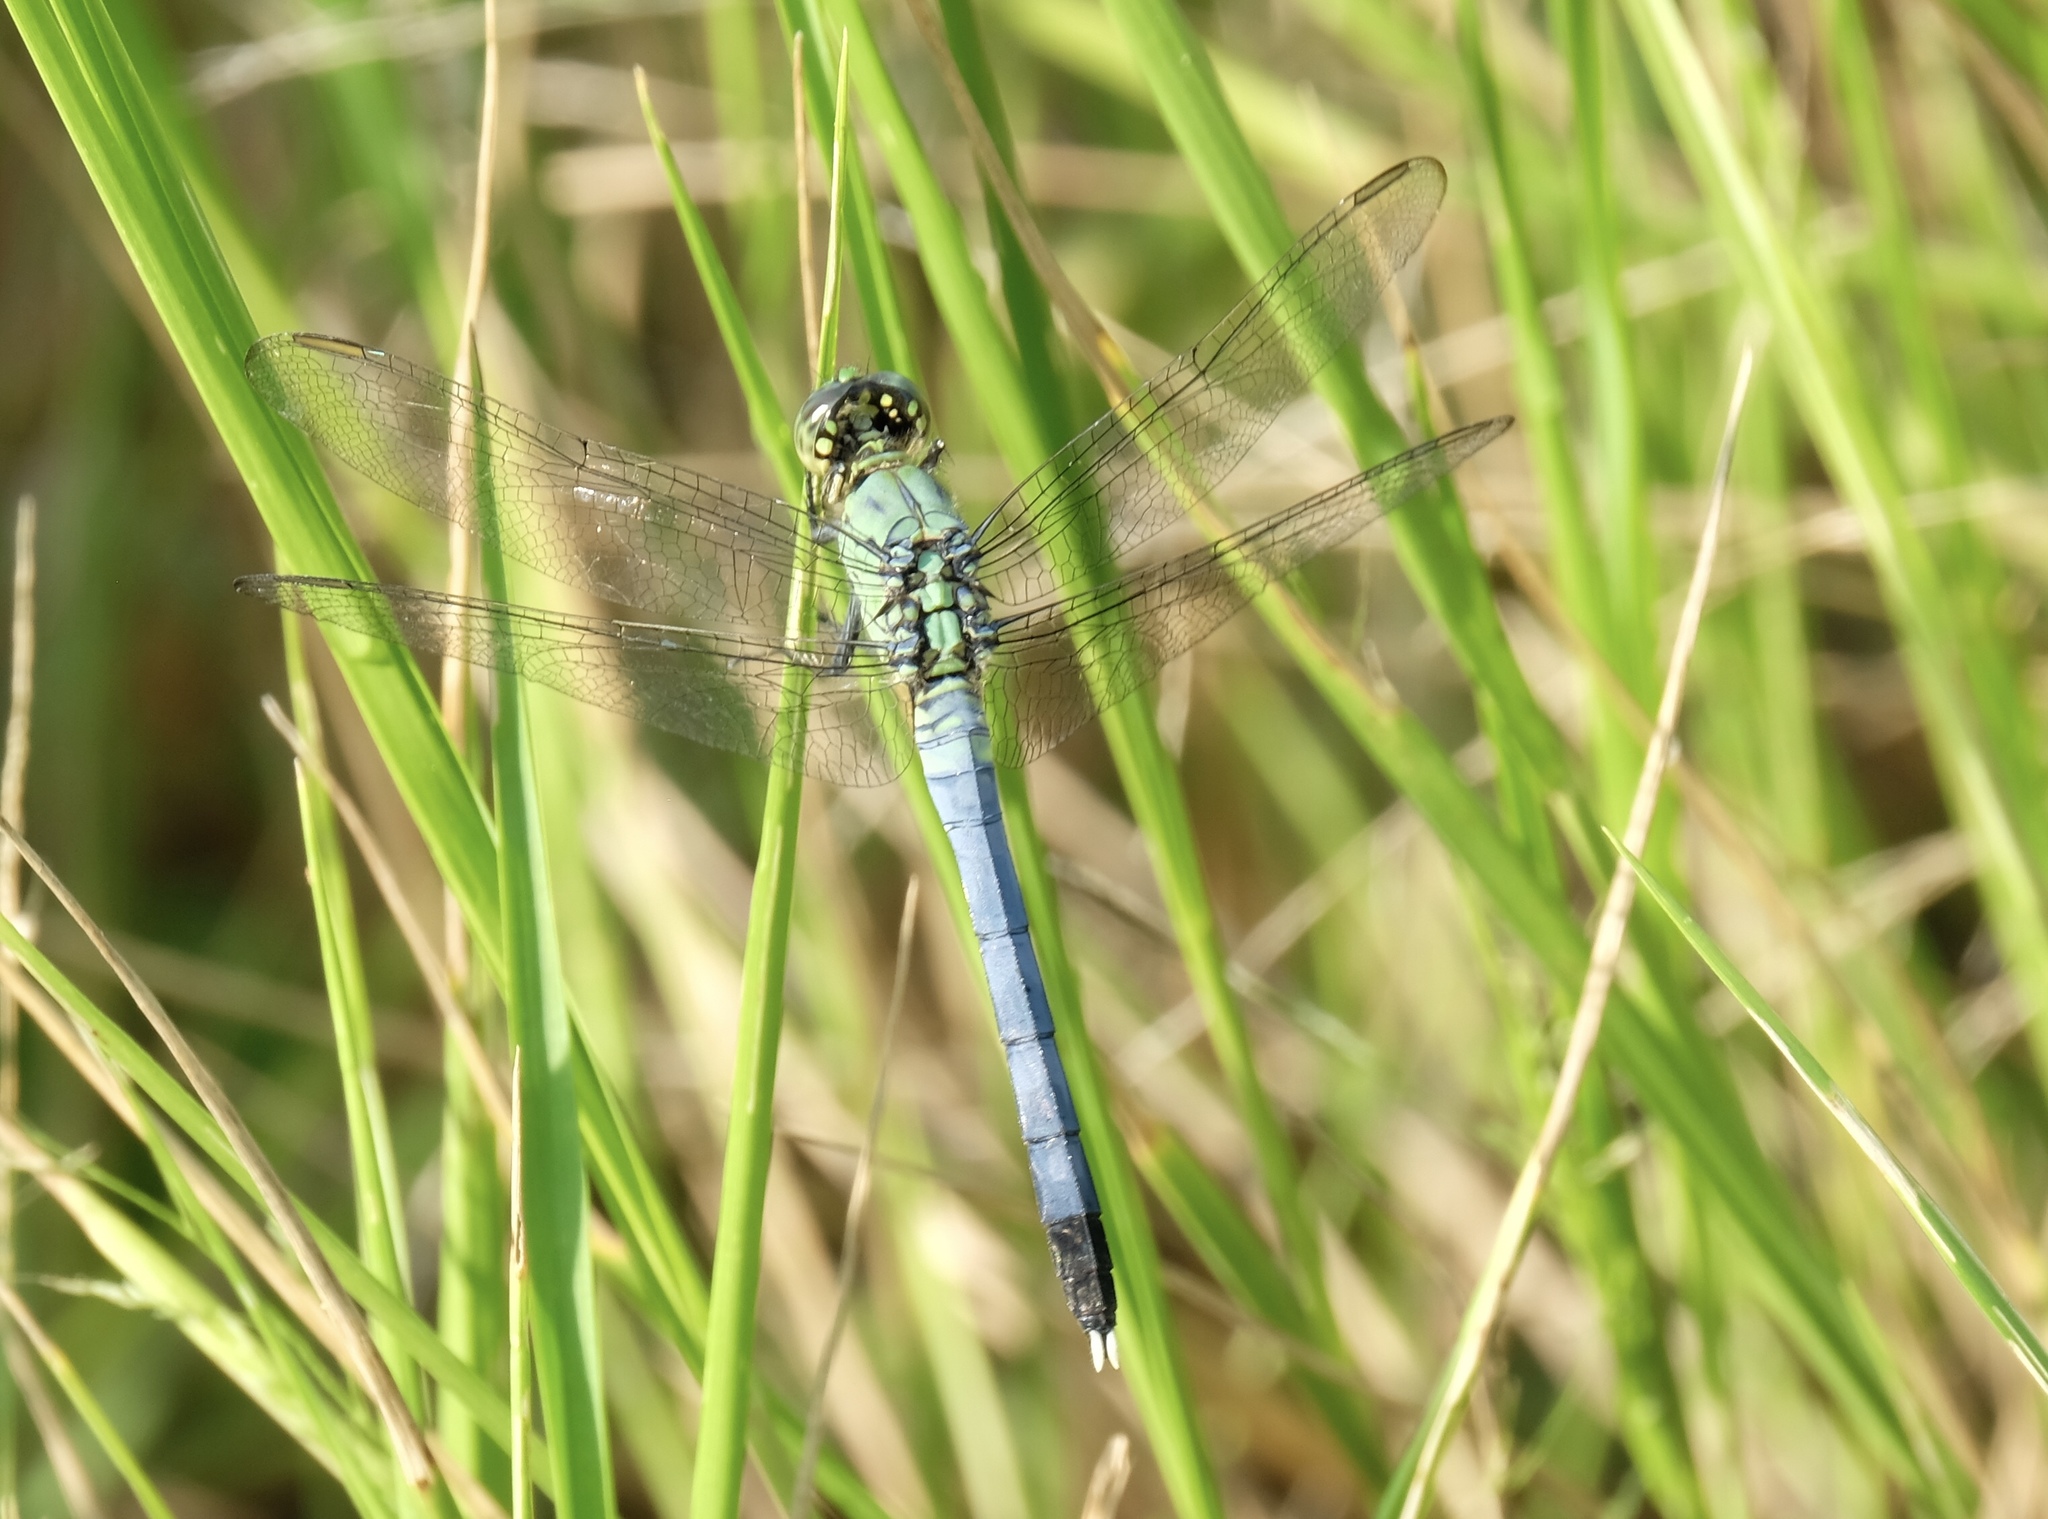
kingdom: Animalia
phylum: Arthropoda
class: Insecta
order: Odonata
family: Libellulidae
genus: Erythemis
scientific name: Erythemis simplicicollis
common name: Eastern pondhawk
